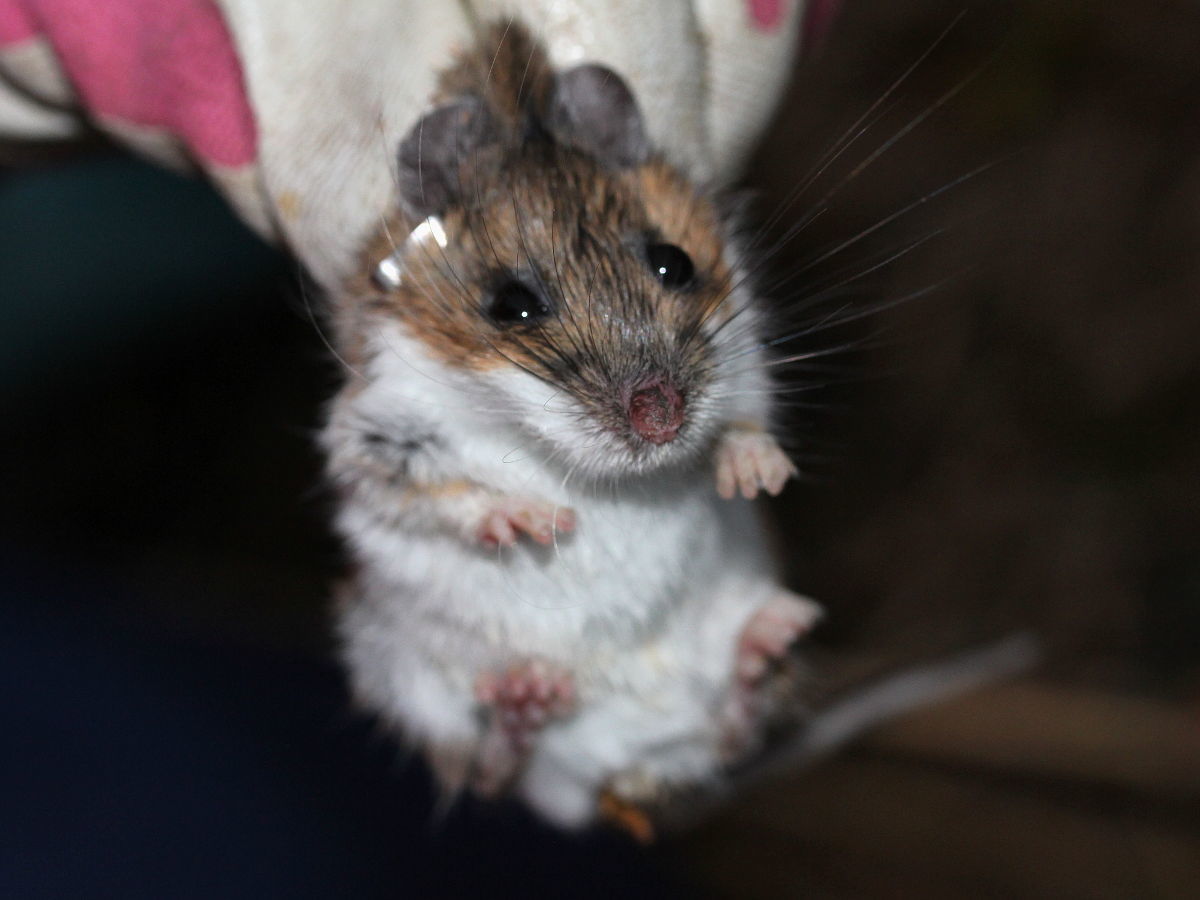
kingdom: Animalia
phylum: Chordata
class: Mammalia
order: Rodentia
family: Cricetidae
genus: Peromyscus
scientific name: Peromyscus leucopus
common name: White-footed deermouse
